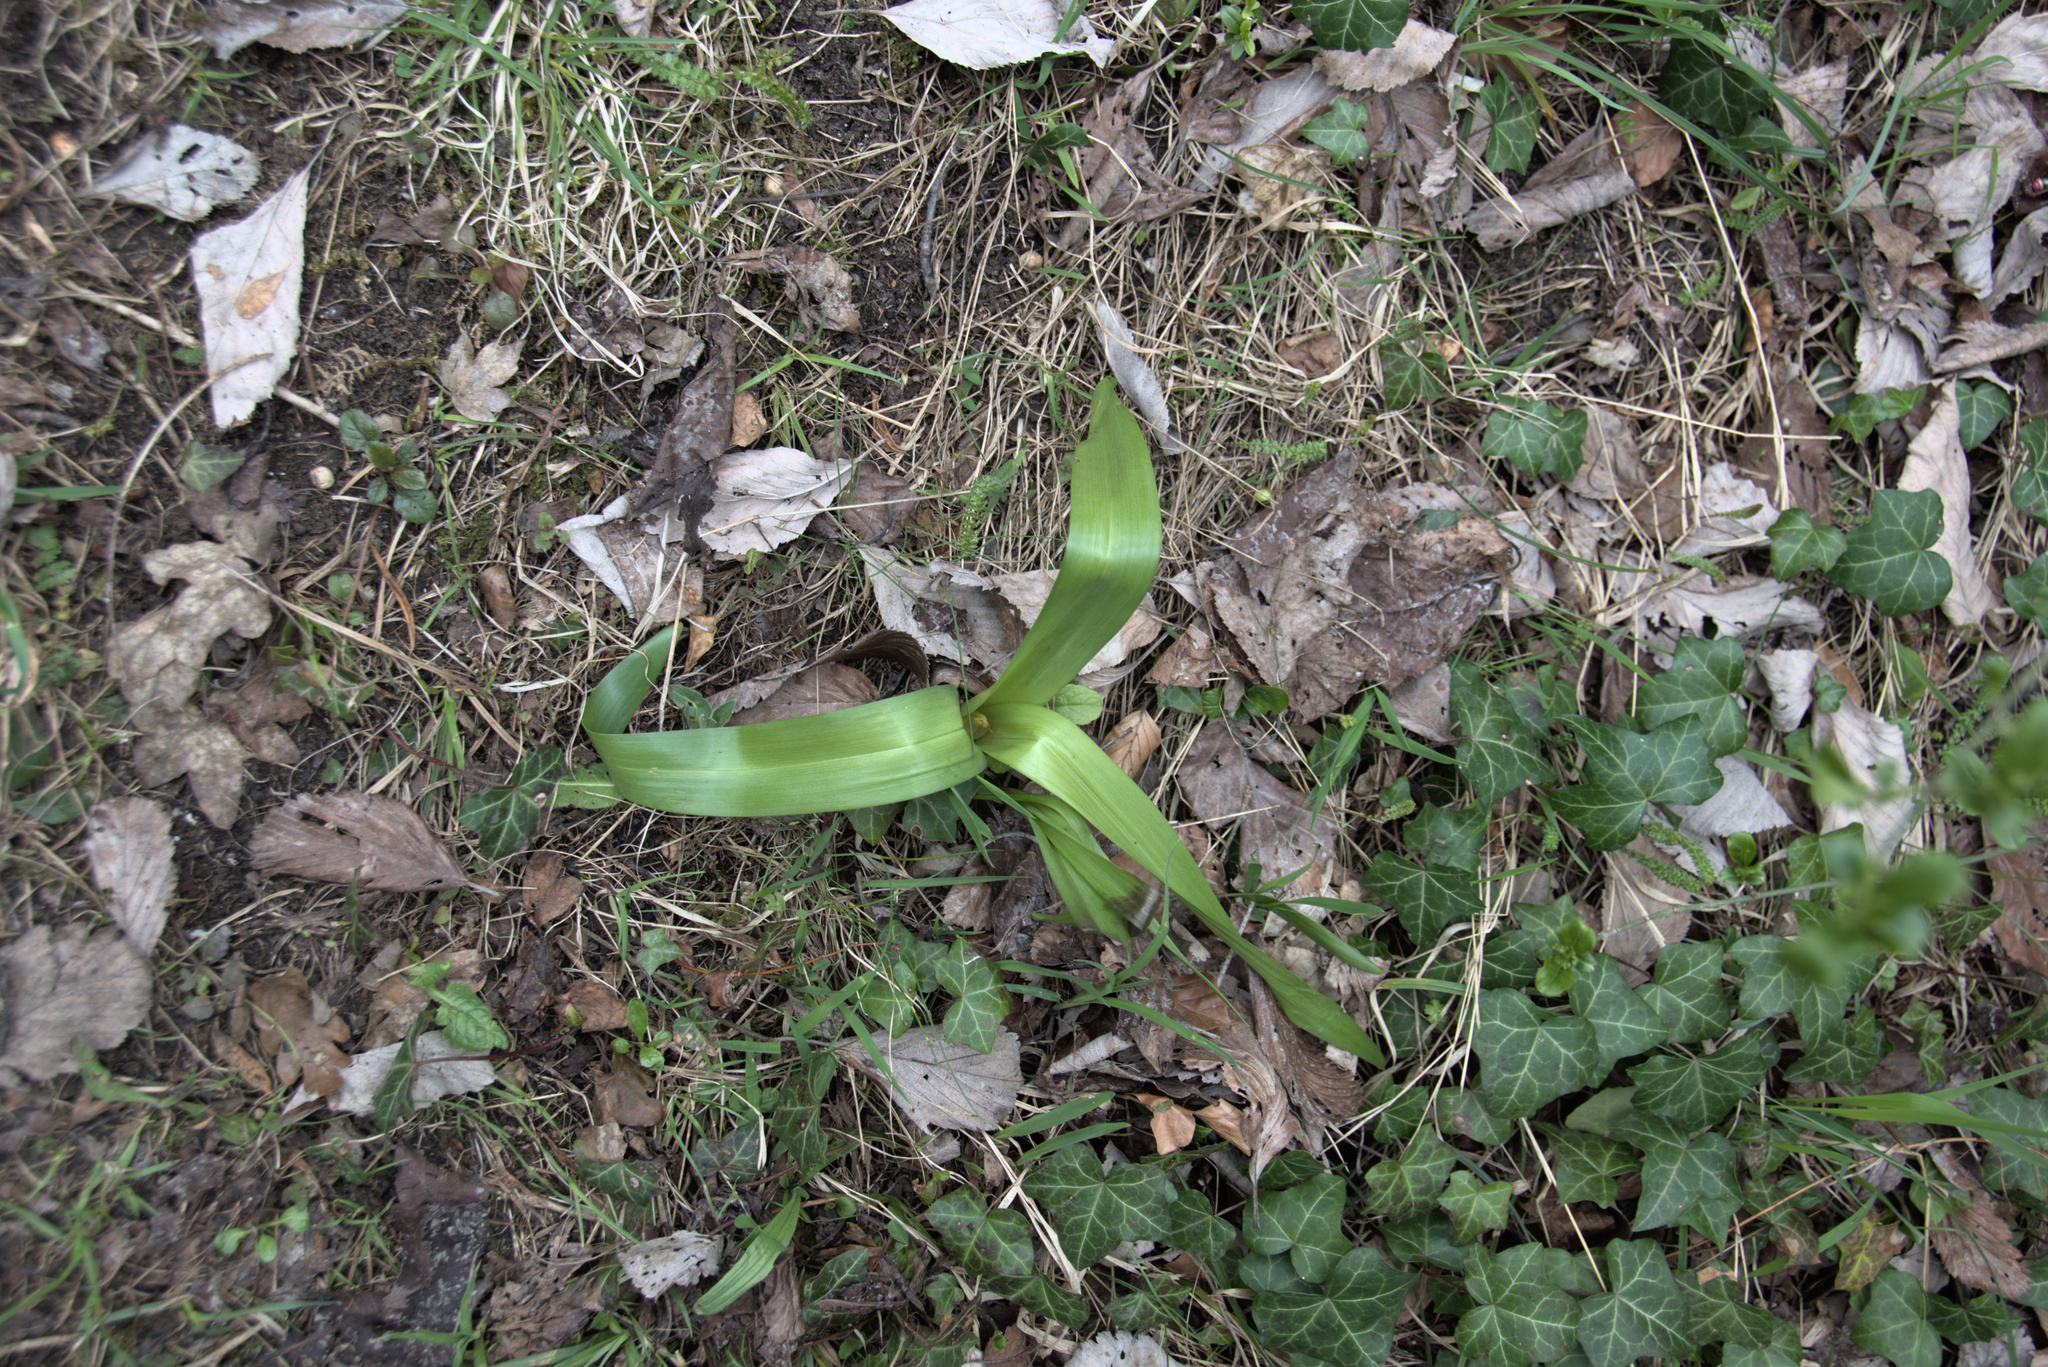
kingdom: Plantae
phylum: Tracheophyta
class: Liliopsida
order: Liliales
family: Colchicaceae
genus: Colchicum
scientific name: Colchicum autumnale
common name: Autumn crocus
